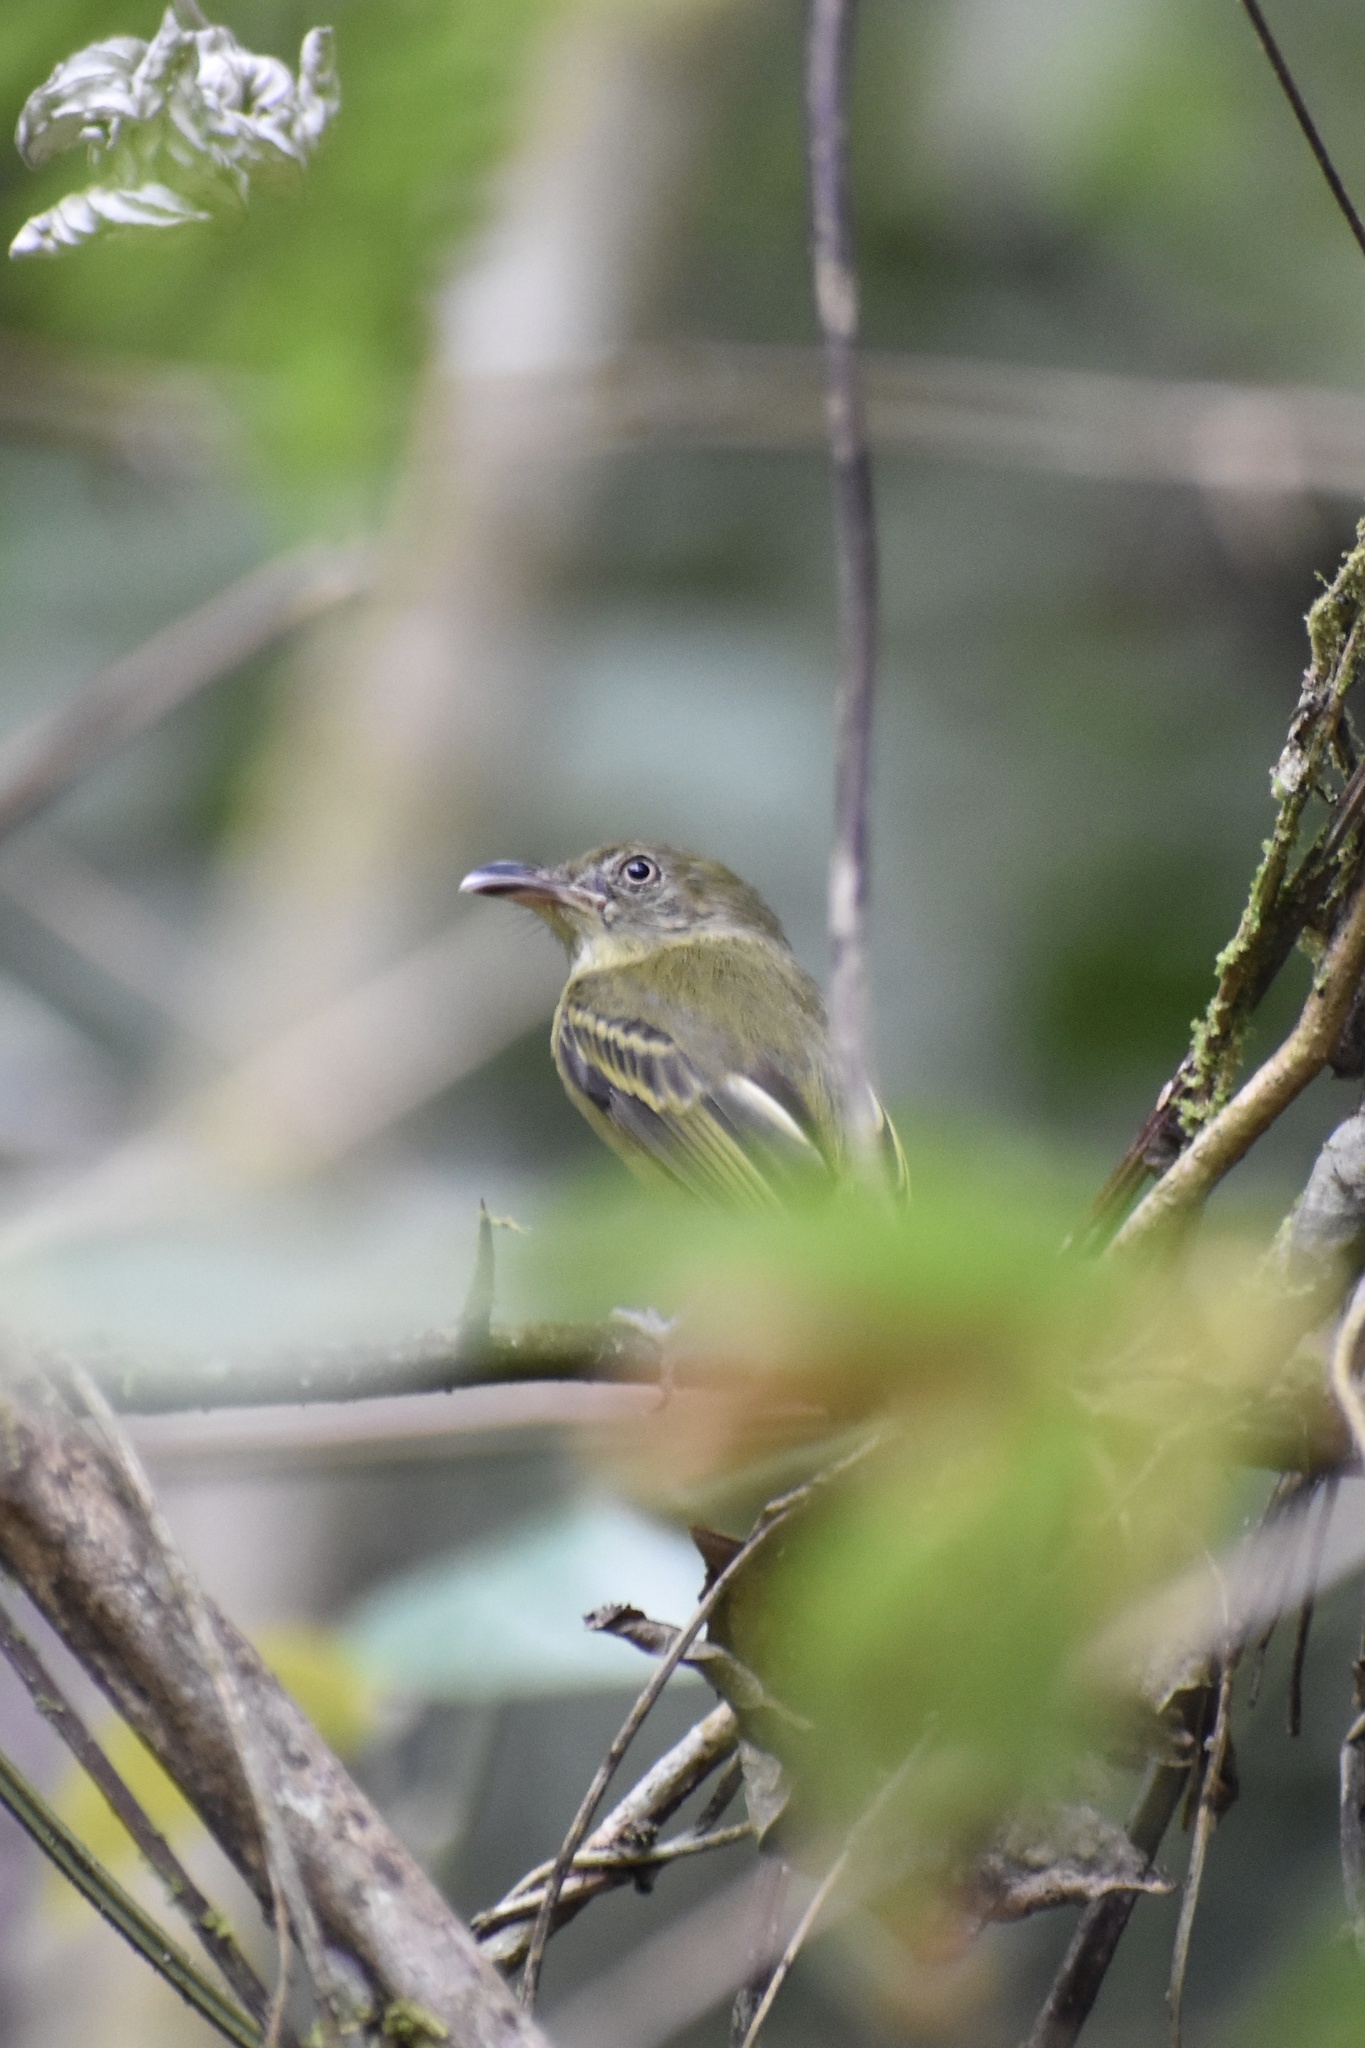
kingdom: Animalia
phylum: Chordata
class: Aves
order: Passeriformes
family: Tyrannidae
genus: Oncostoma
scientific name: Oncostoma olivaceum
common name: Southern bentbill
